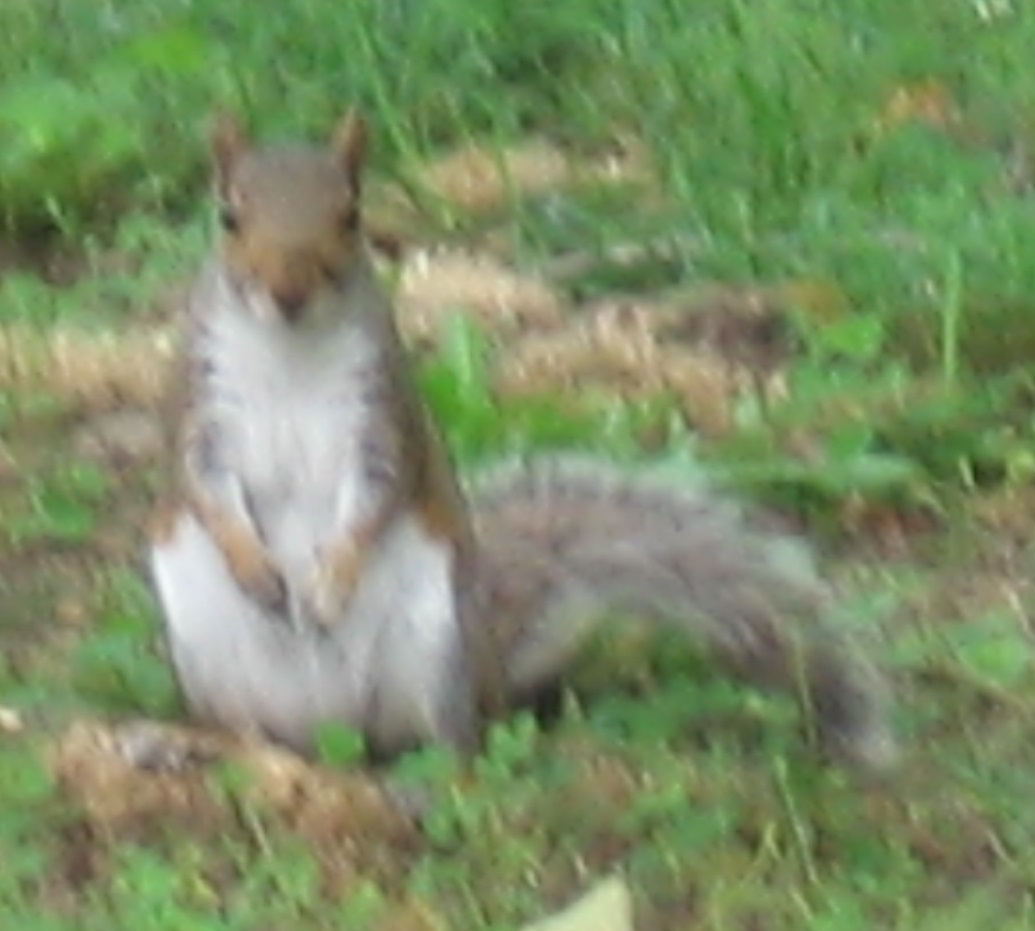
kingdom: Animalia
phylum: Chordata
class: Mammalia
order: Rodentia
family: Sciuridae
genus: Sciurus
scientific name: Sciurus carolinensis
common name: Eastern gray squirrel
